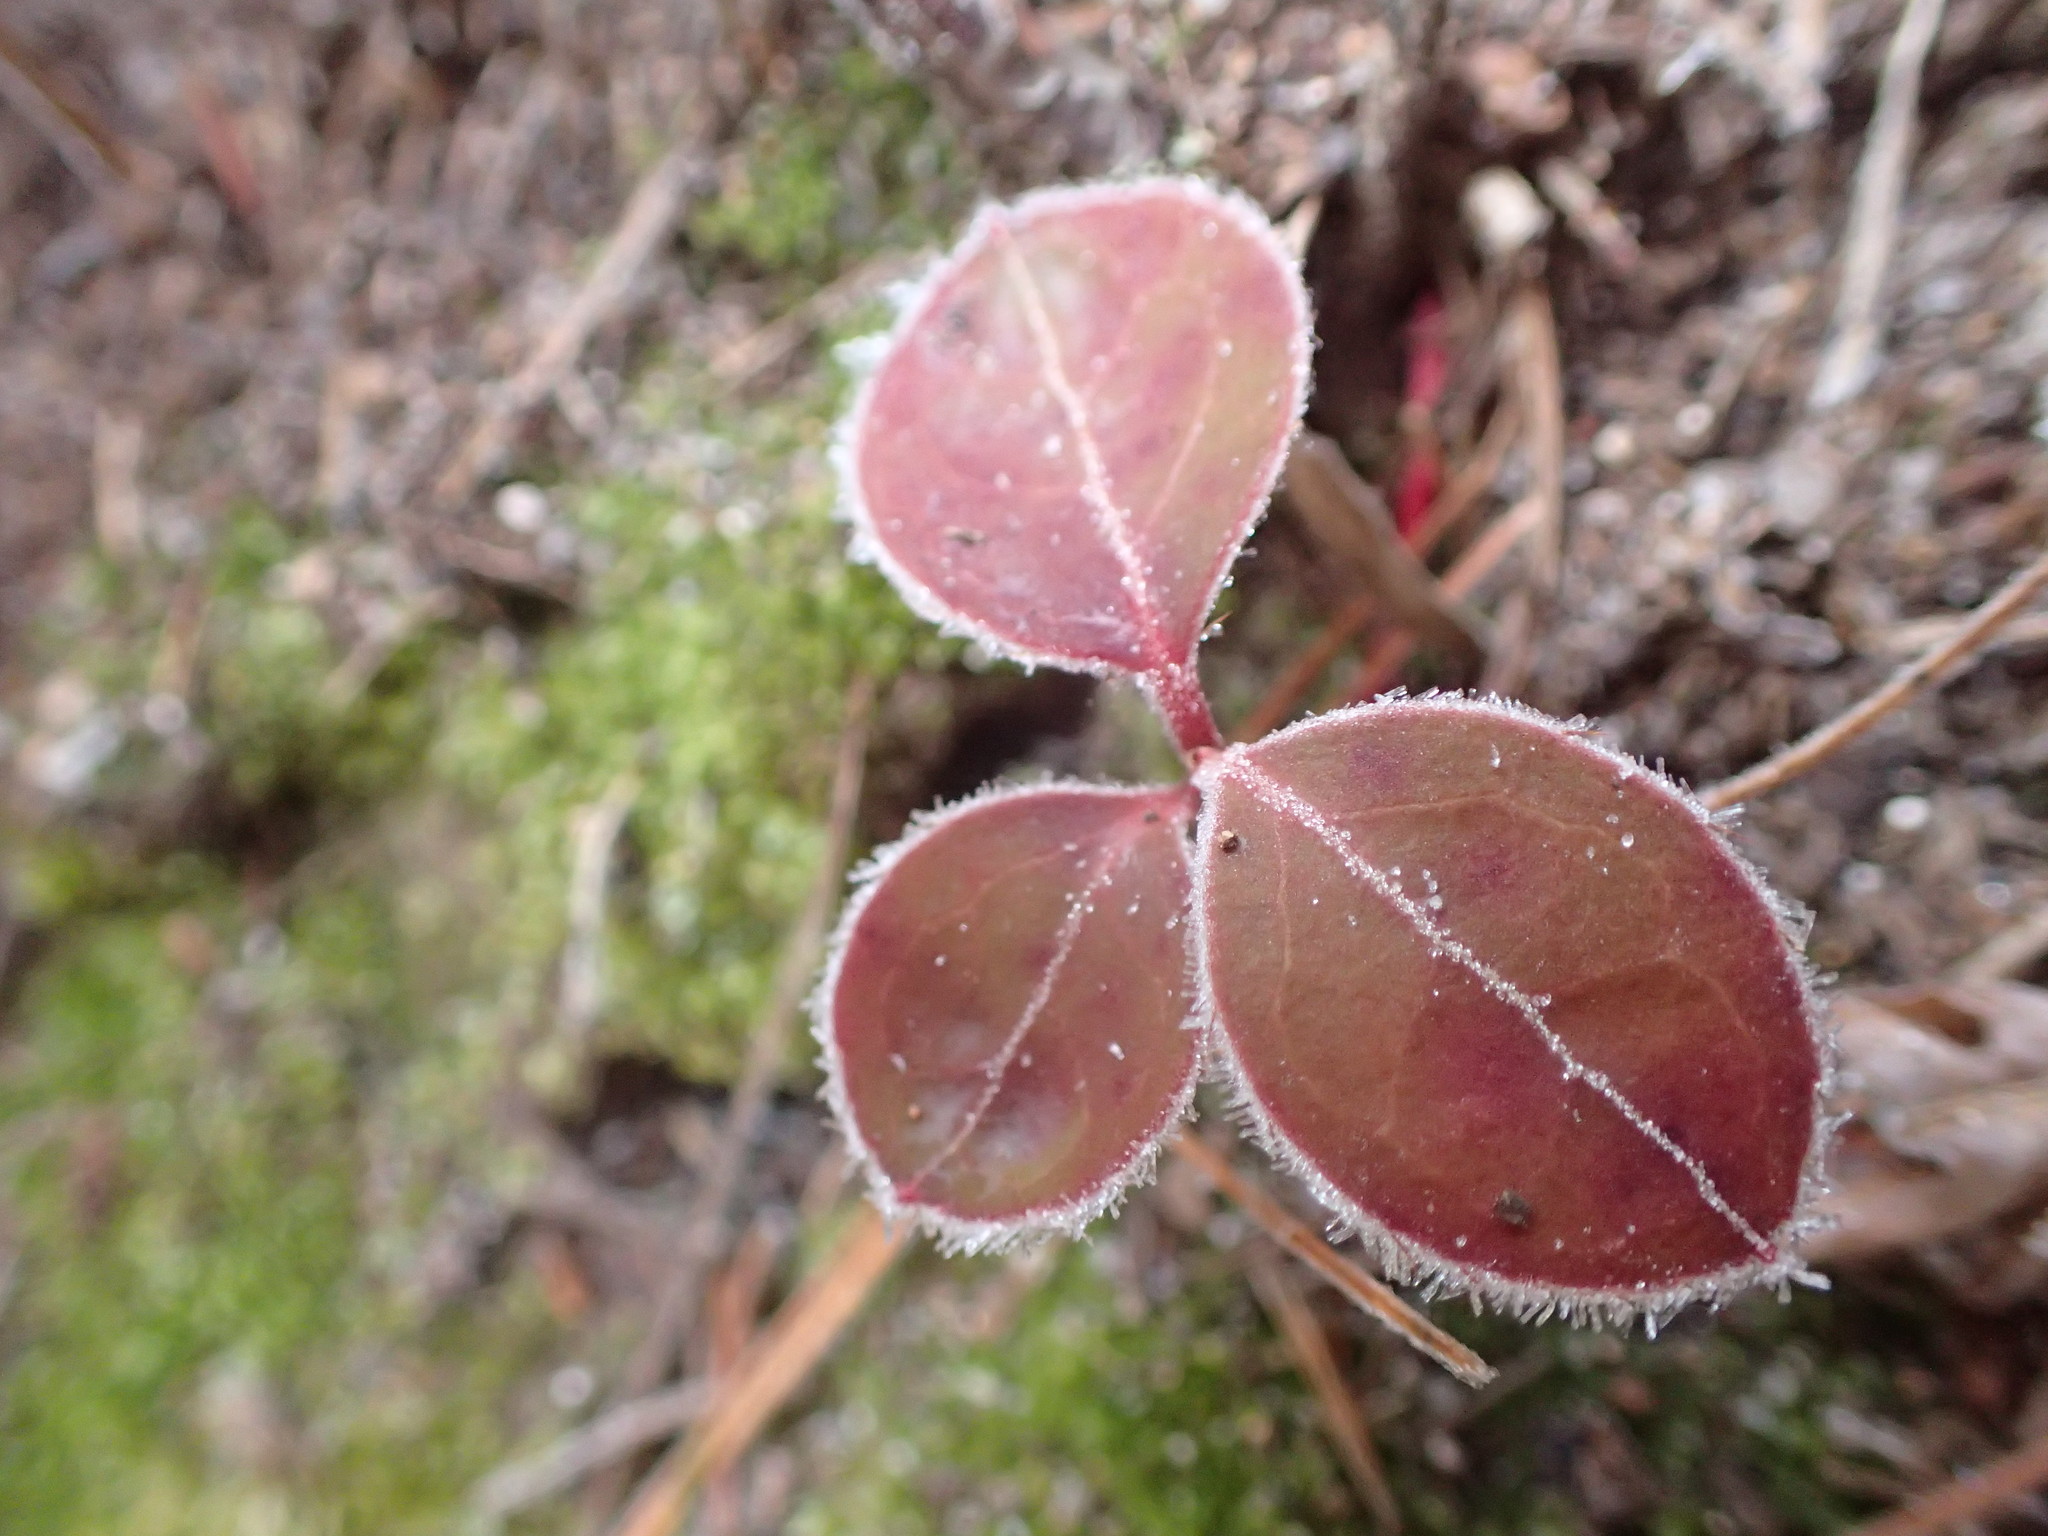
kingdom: Plantae
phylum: Tracheophyta
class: Magnoliopsida
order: Ericales
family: Ericaceae
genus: Gaultheria
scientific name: Gaultheria procumbens
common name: Checkerberry
